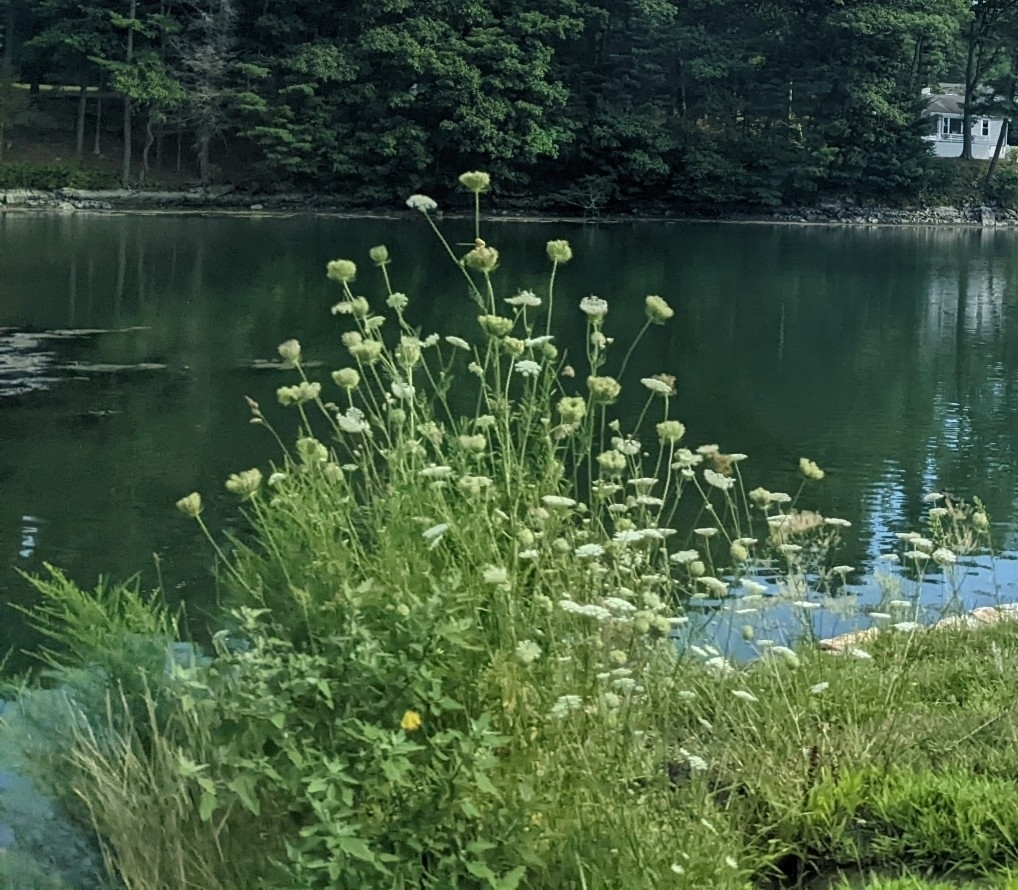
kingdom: Plantae
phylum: Tracheophyta
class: Magnoliopsida
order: Apiales
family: Apiaceae
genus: Daucus
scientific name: Daucus carota
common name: Wild carrot
